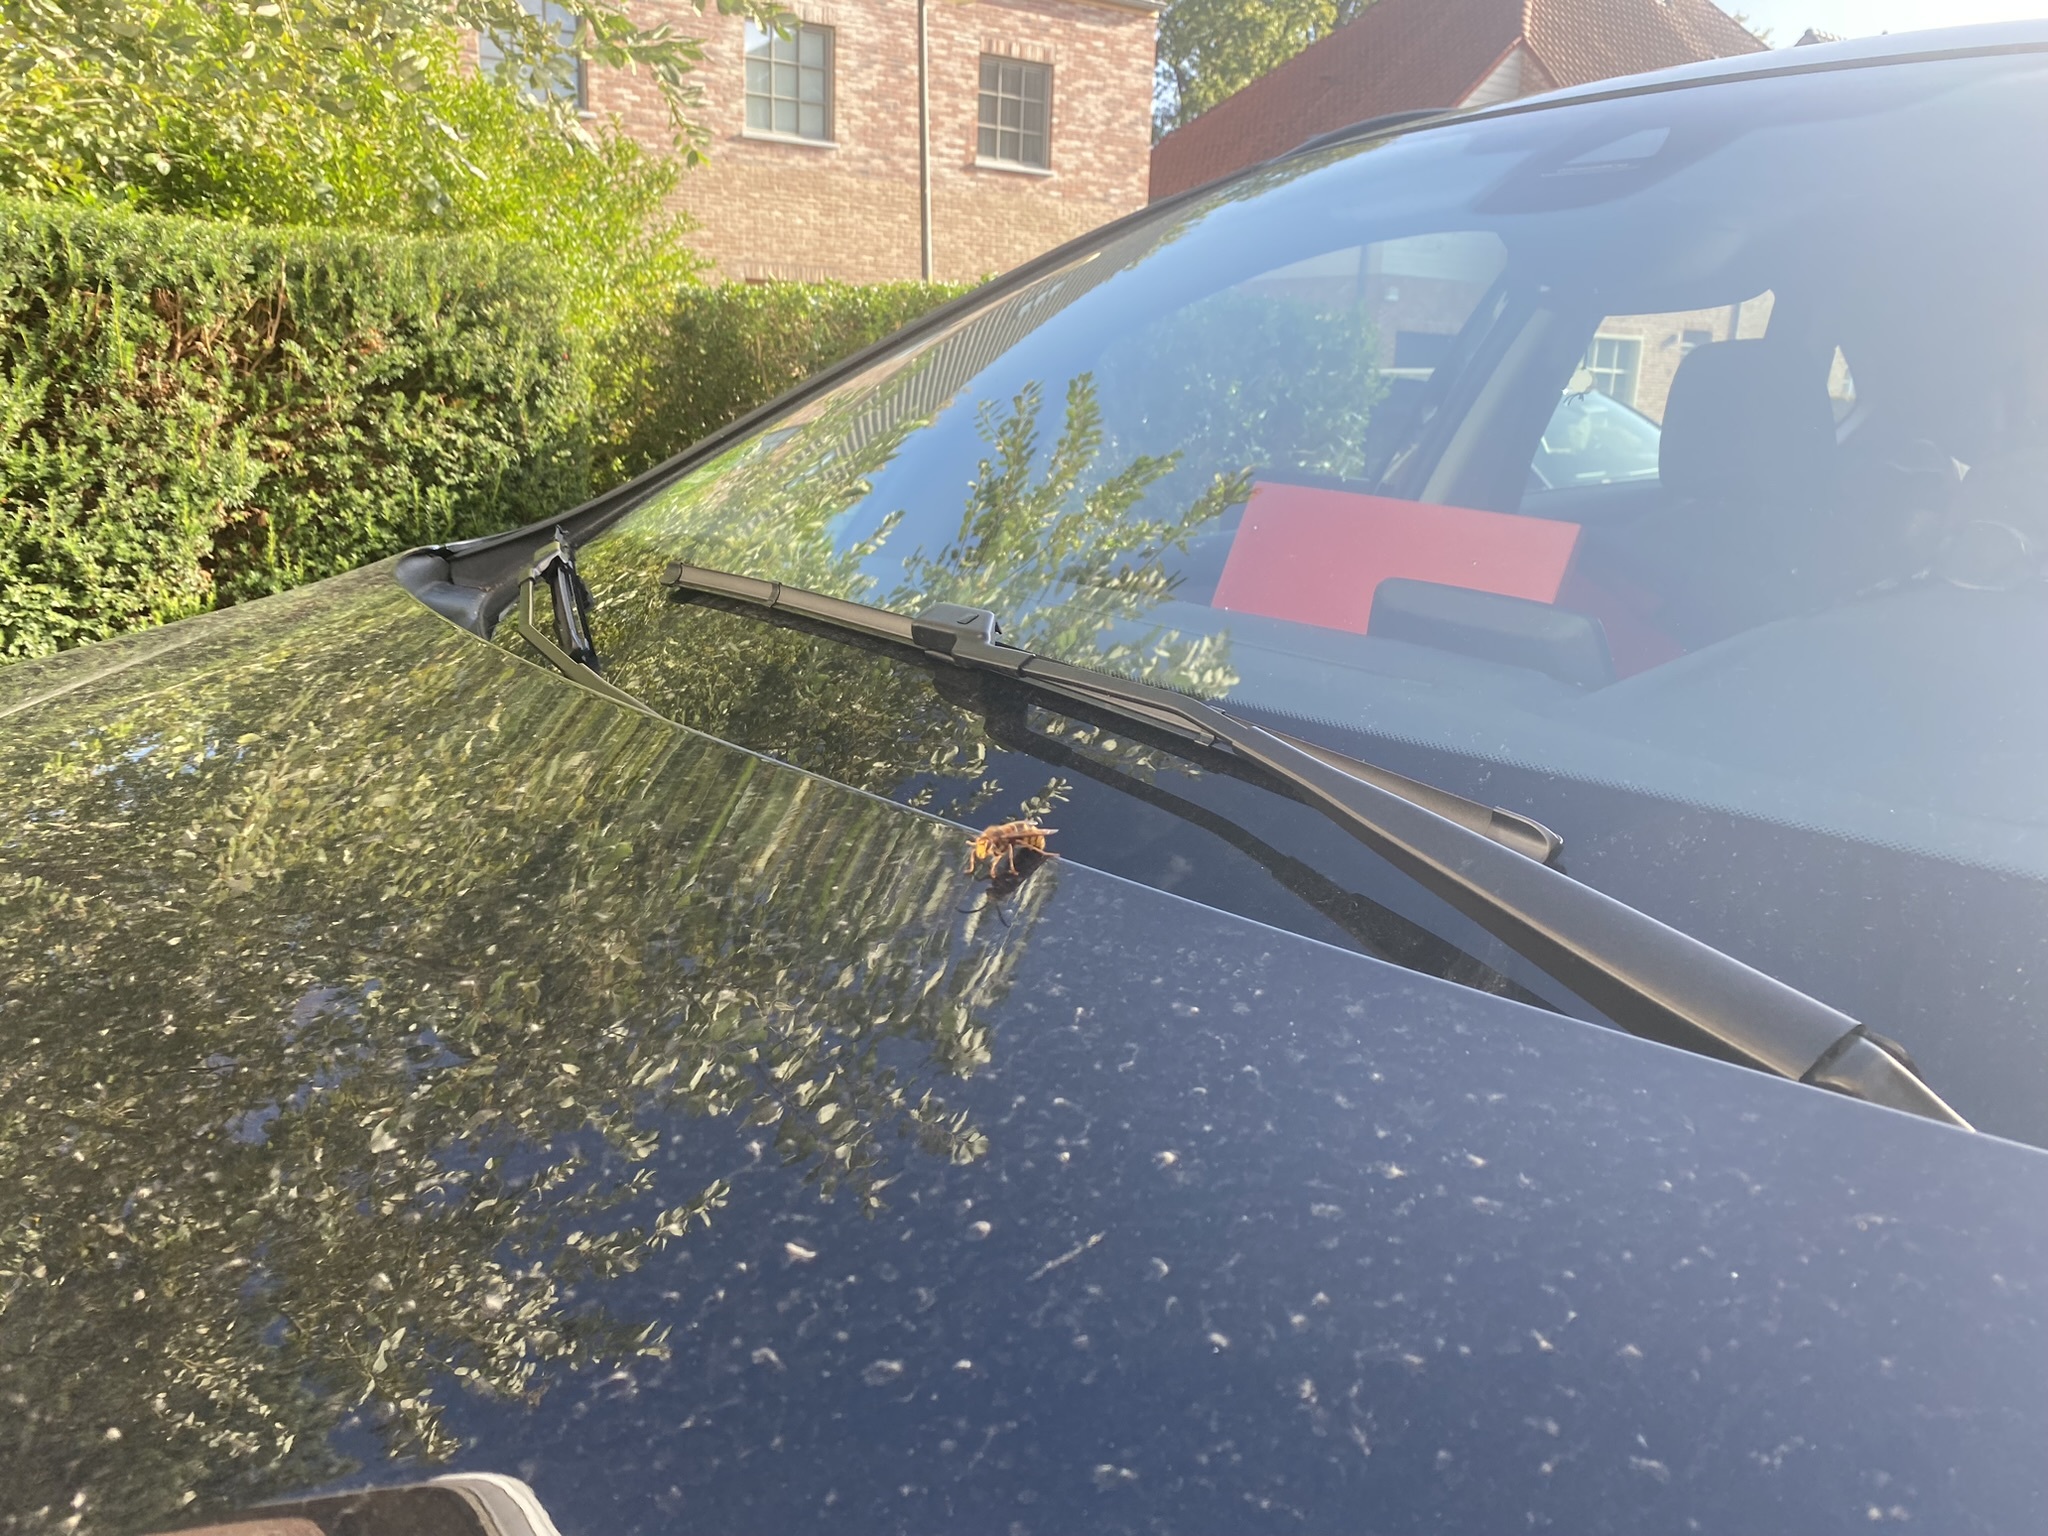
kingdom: Animalia
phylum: Arthropoda
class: Insecta
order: Hymenoptera
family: Vespidae
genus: Vespa
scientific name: Vespa crabro
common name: Hornet
